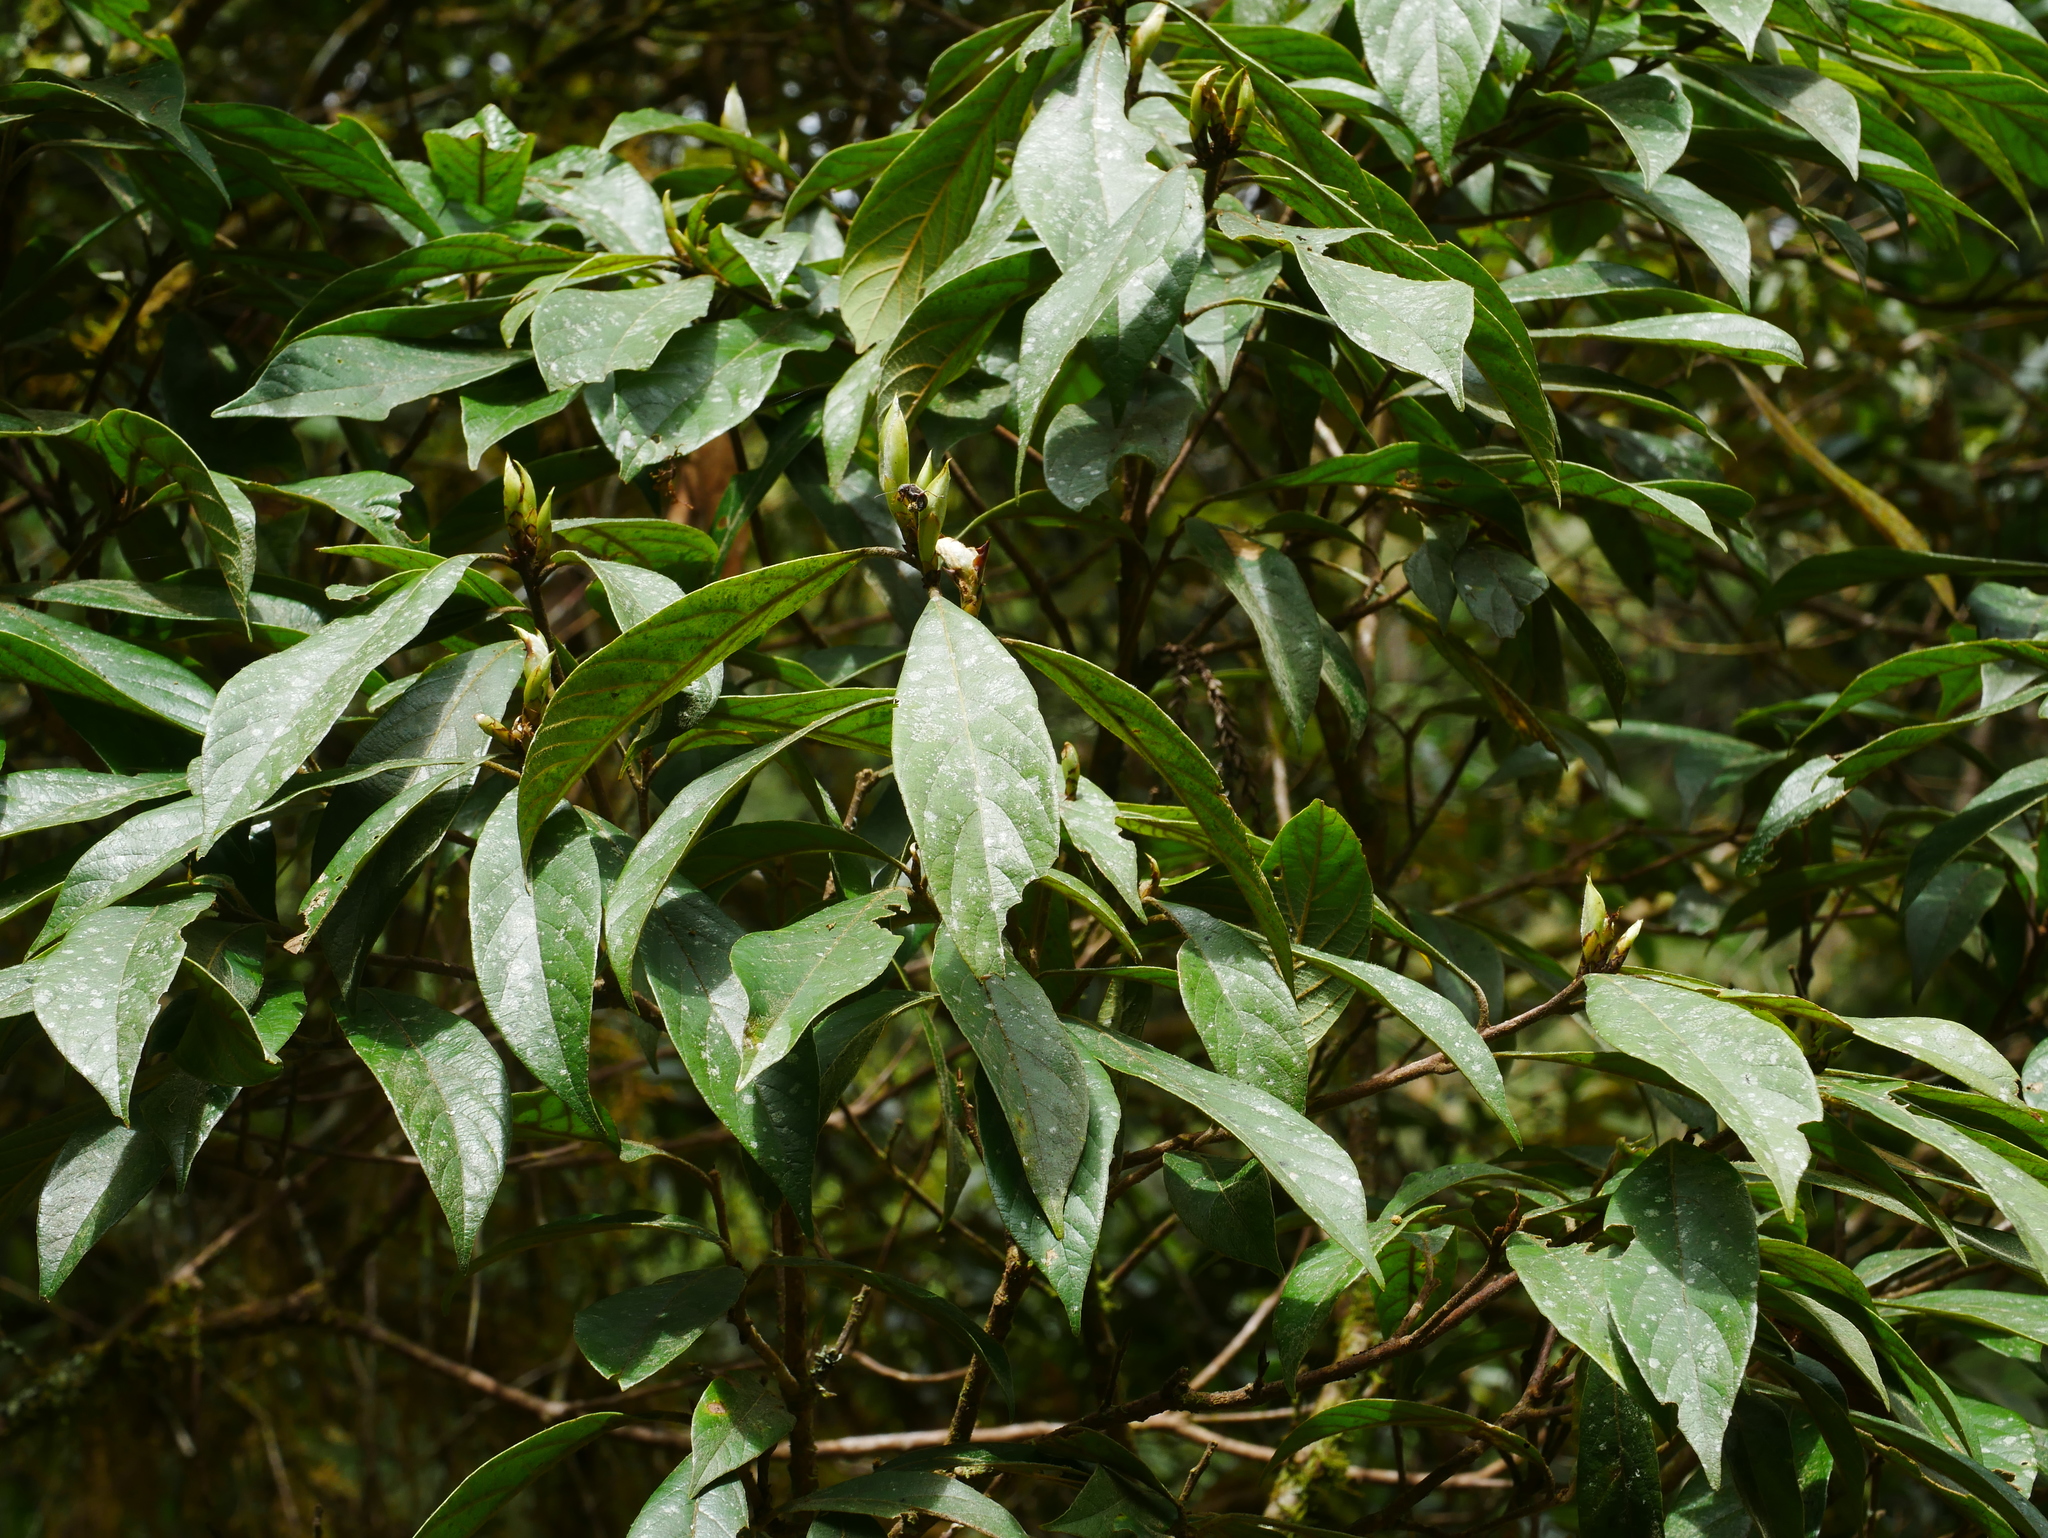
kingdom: Plantae
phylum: Tracheophyta
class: Magnoliopsida
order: Laurales
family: Lauraceae
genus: Actinodaphne
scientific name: Actinodaphne mushaensis
